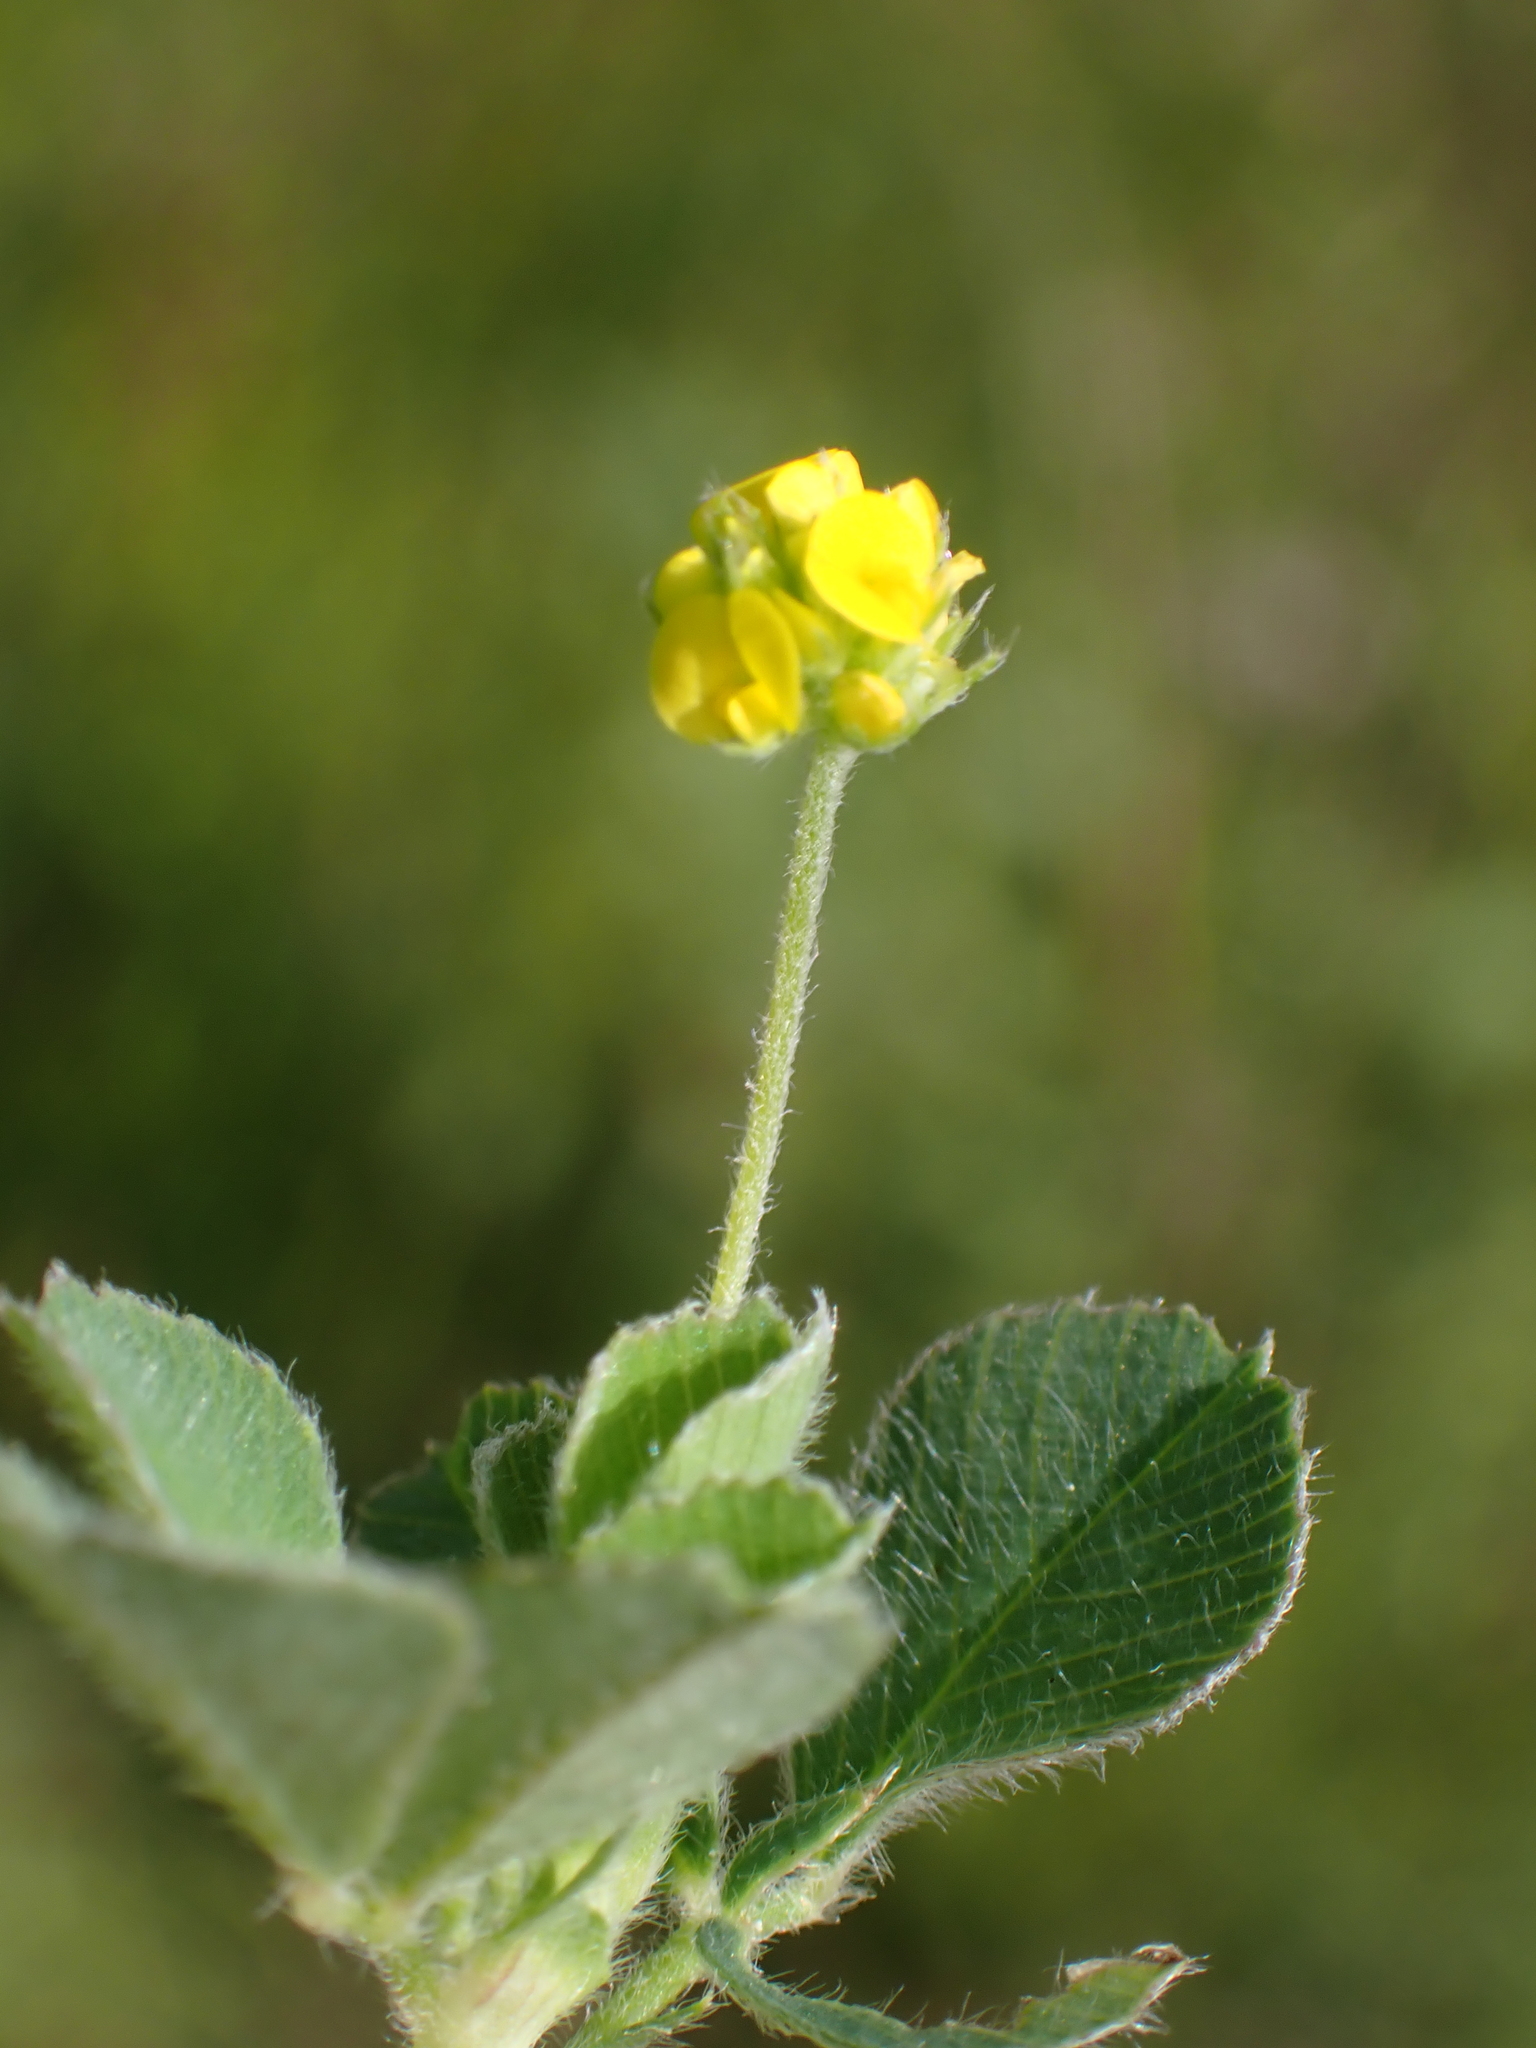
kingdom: Plantae
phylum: Tracheophyta
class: Magnoliopsida
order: Fabales
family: Fabaceae
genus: Medicago
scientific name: Medicago lupulina
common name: Black medick
